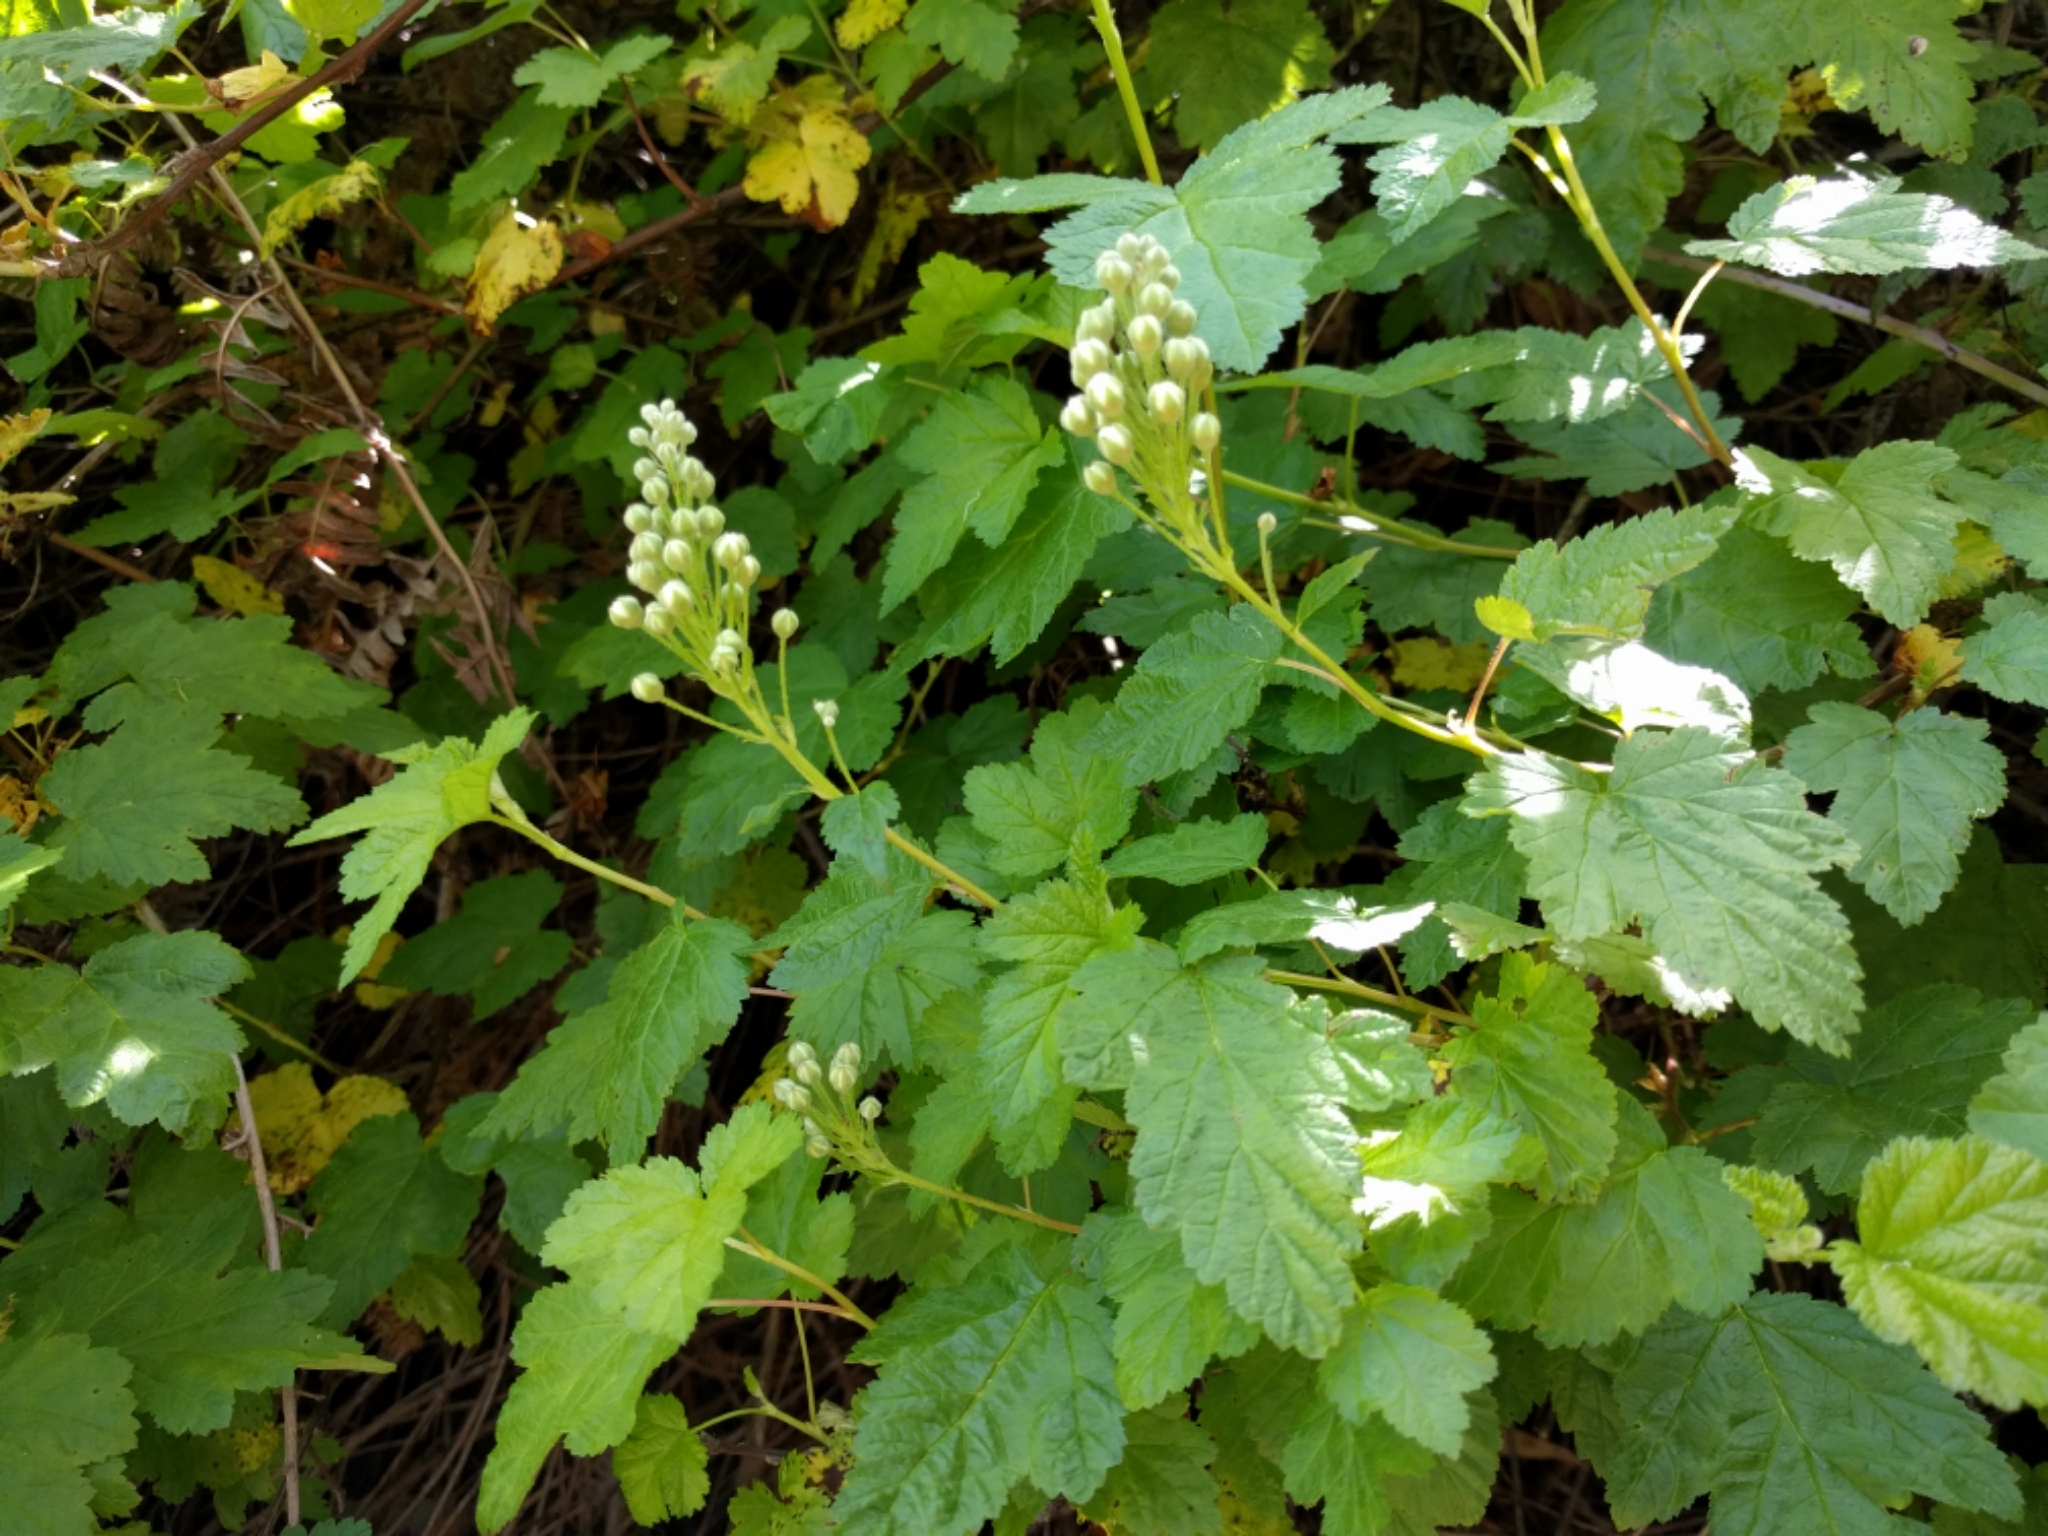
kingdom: Plantae
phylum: Tracheophyta
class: Magnoliopsida
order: Rosales
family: Rosaceae
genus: Physocarpus
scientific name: Physocarpus capitatus
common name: Pacific ninebark
